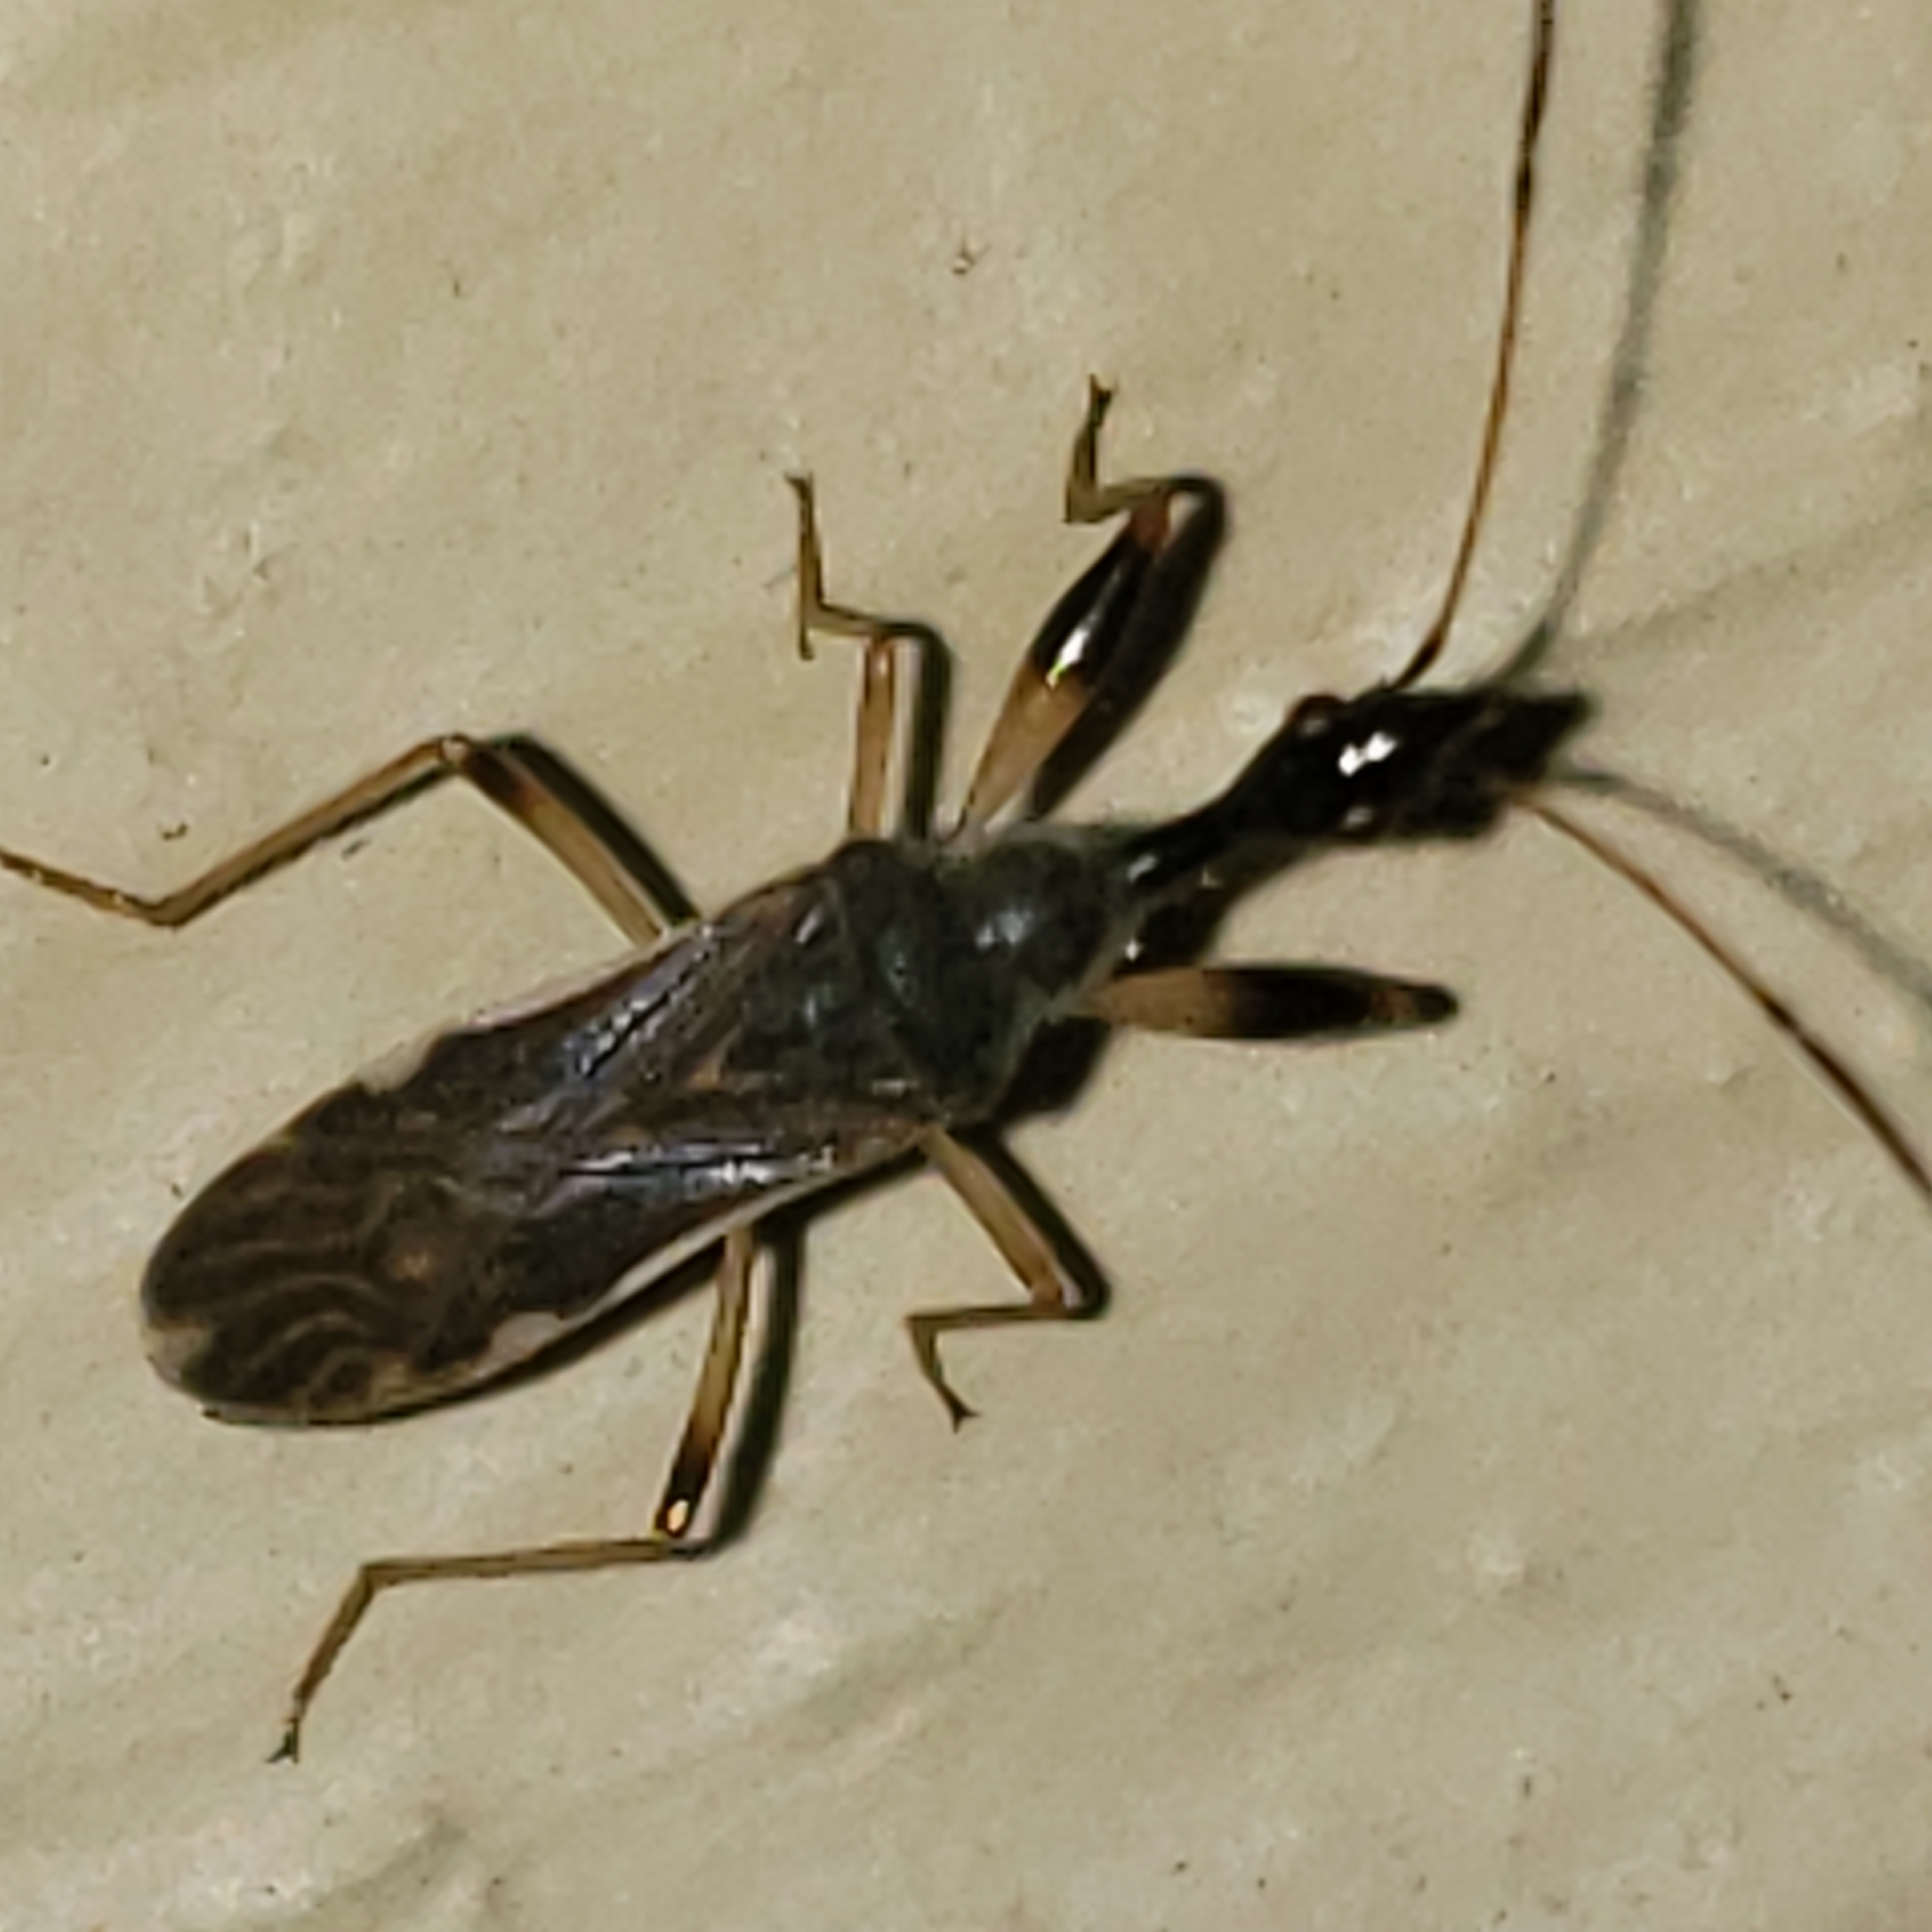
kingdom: Animalia
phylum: Arthropoda
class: Insecta
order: Hemiptera
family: Rhyparochromidae
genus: Myodocha
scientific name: Myodocha serripes
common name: Long-necked seed bug
